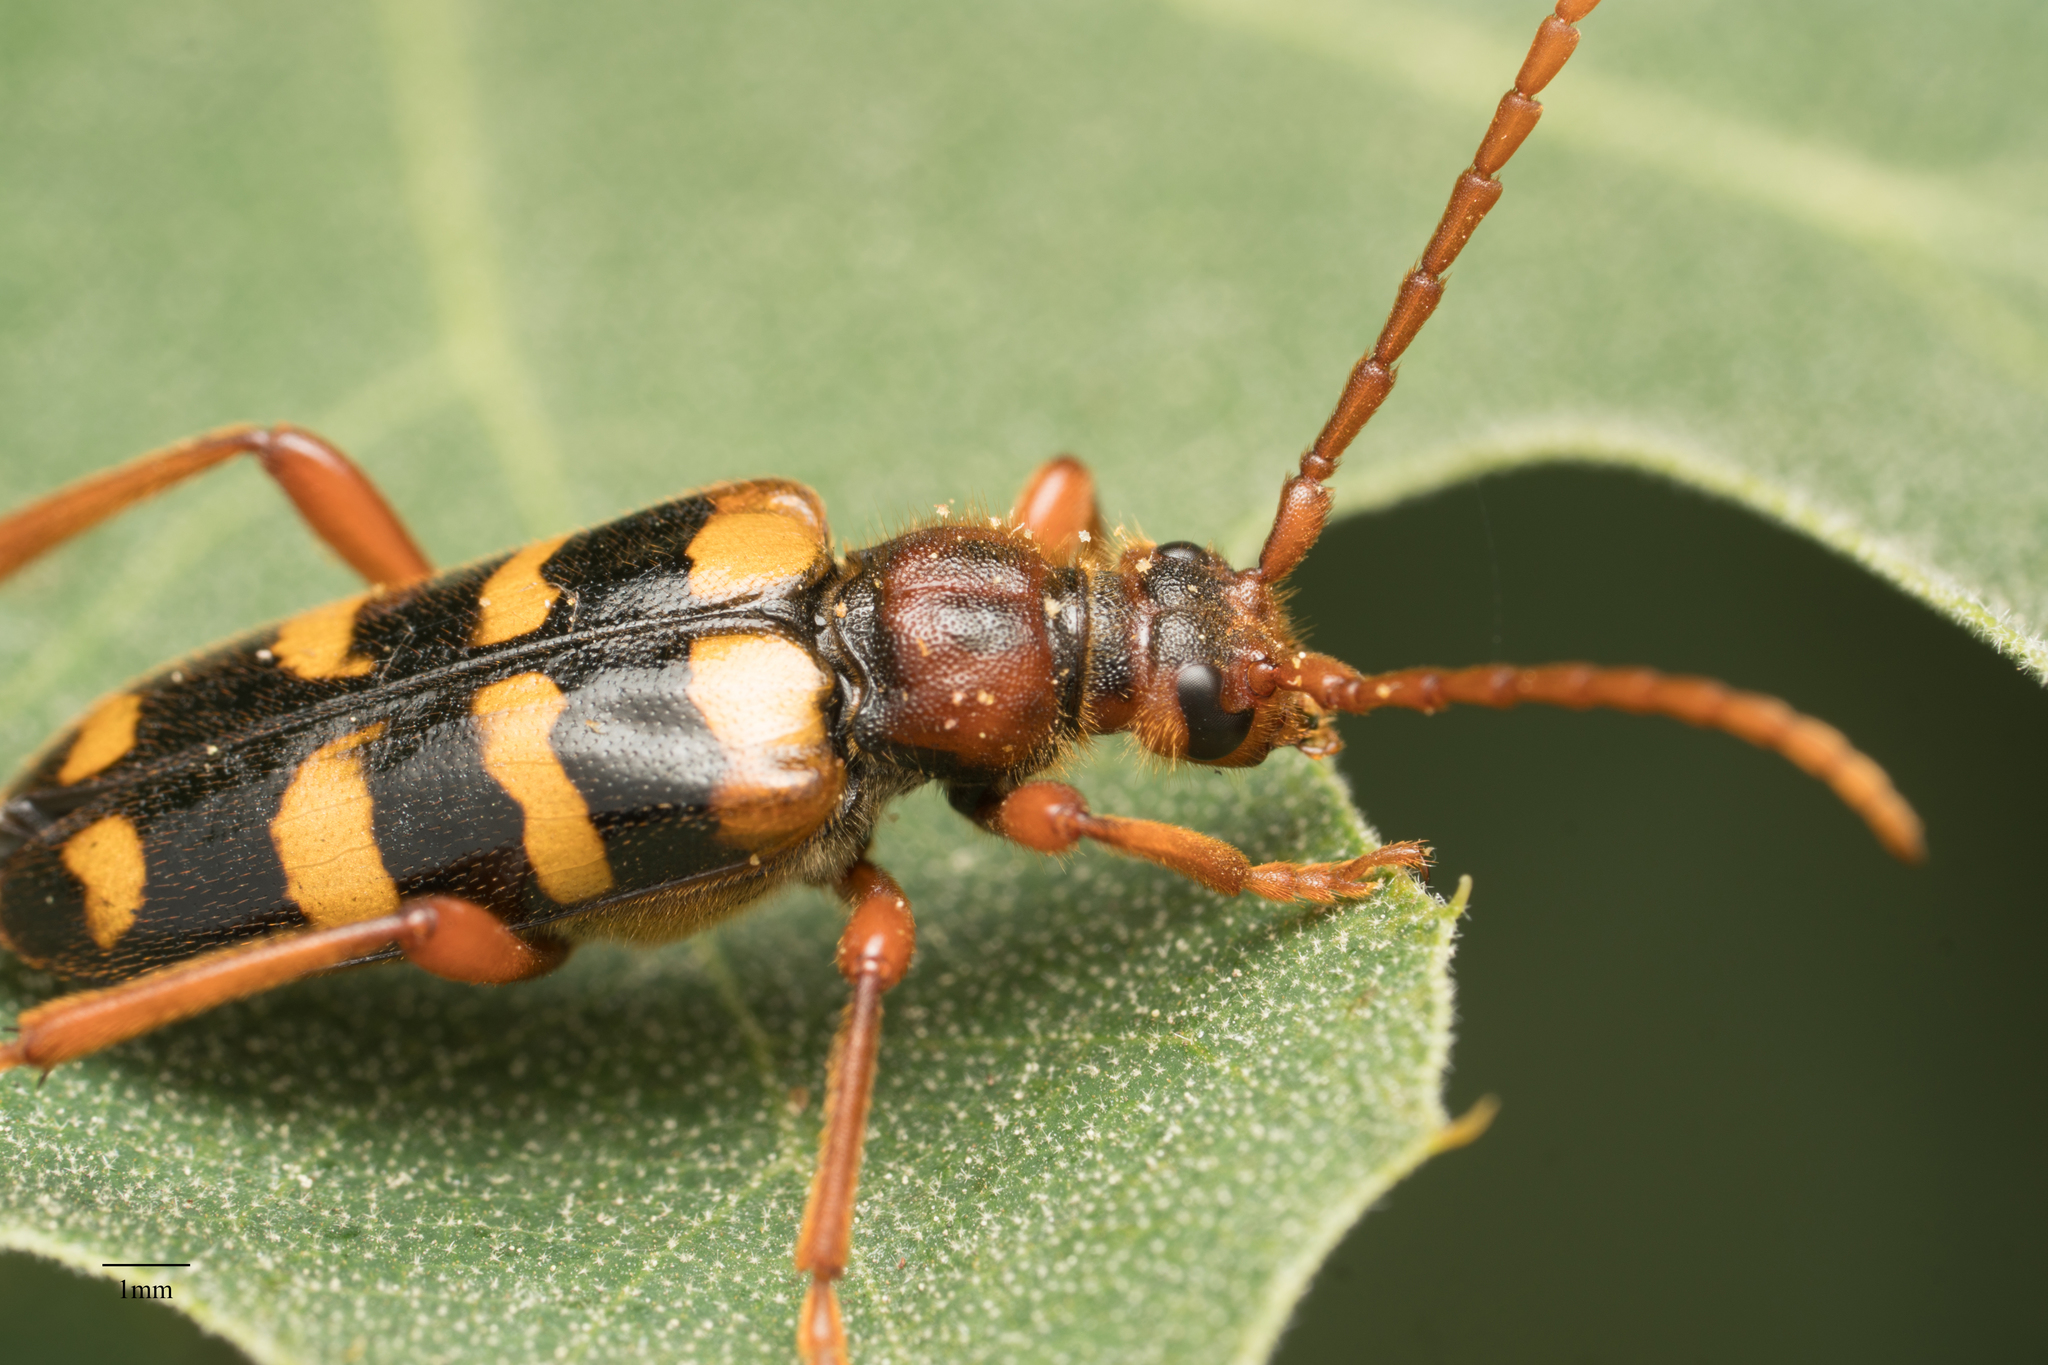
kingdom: Animalia
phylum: Arthropoda
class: Insecta
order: Coleoptera
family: Cerambycidae
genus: Xestoleptura
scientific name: Xestoleptura crassicornis
